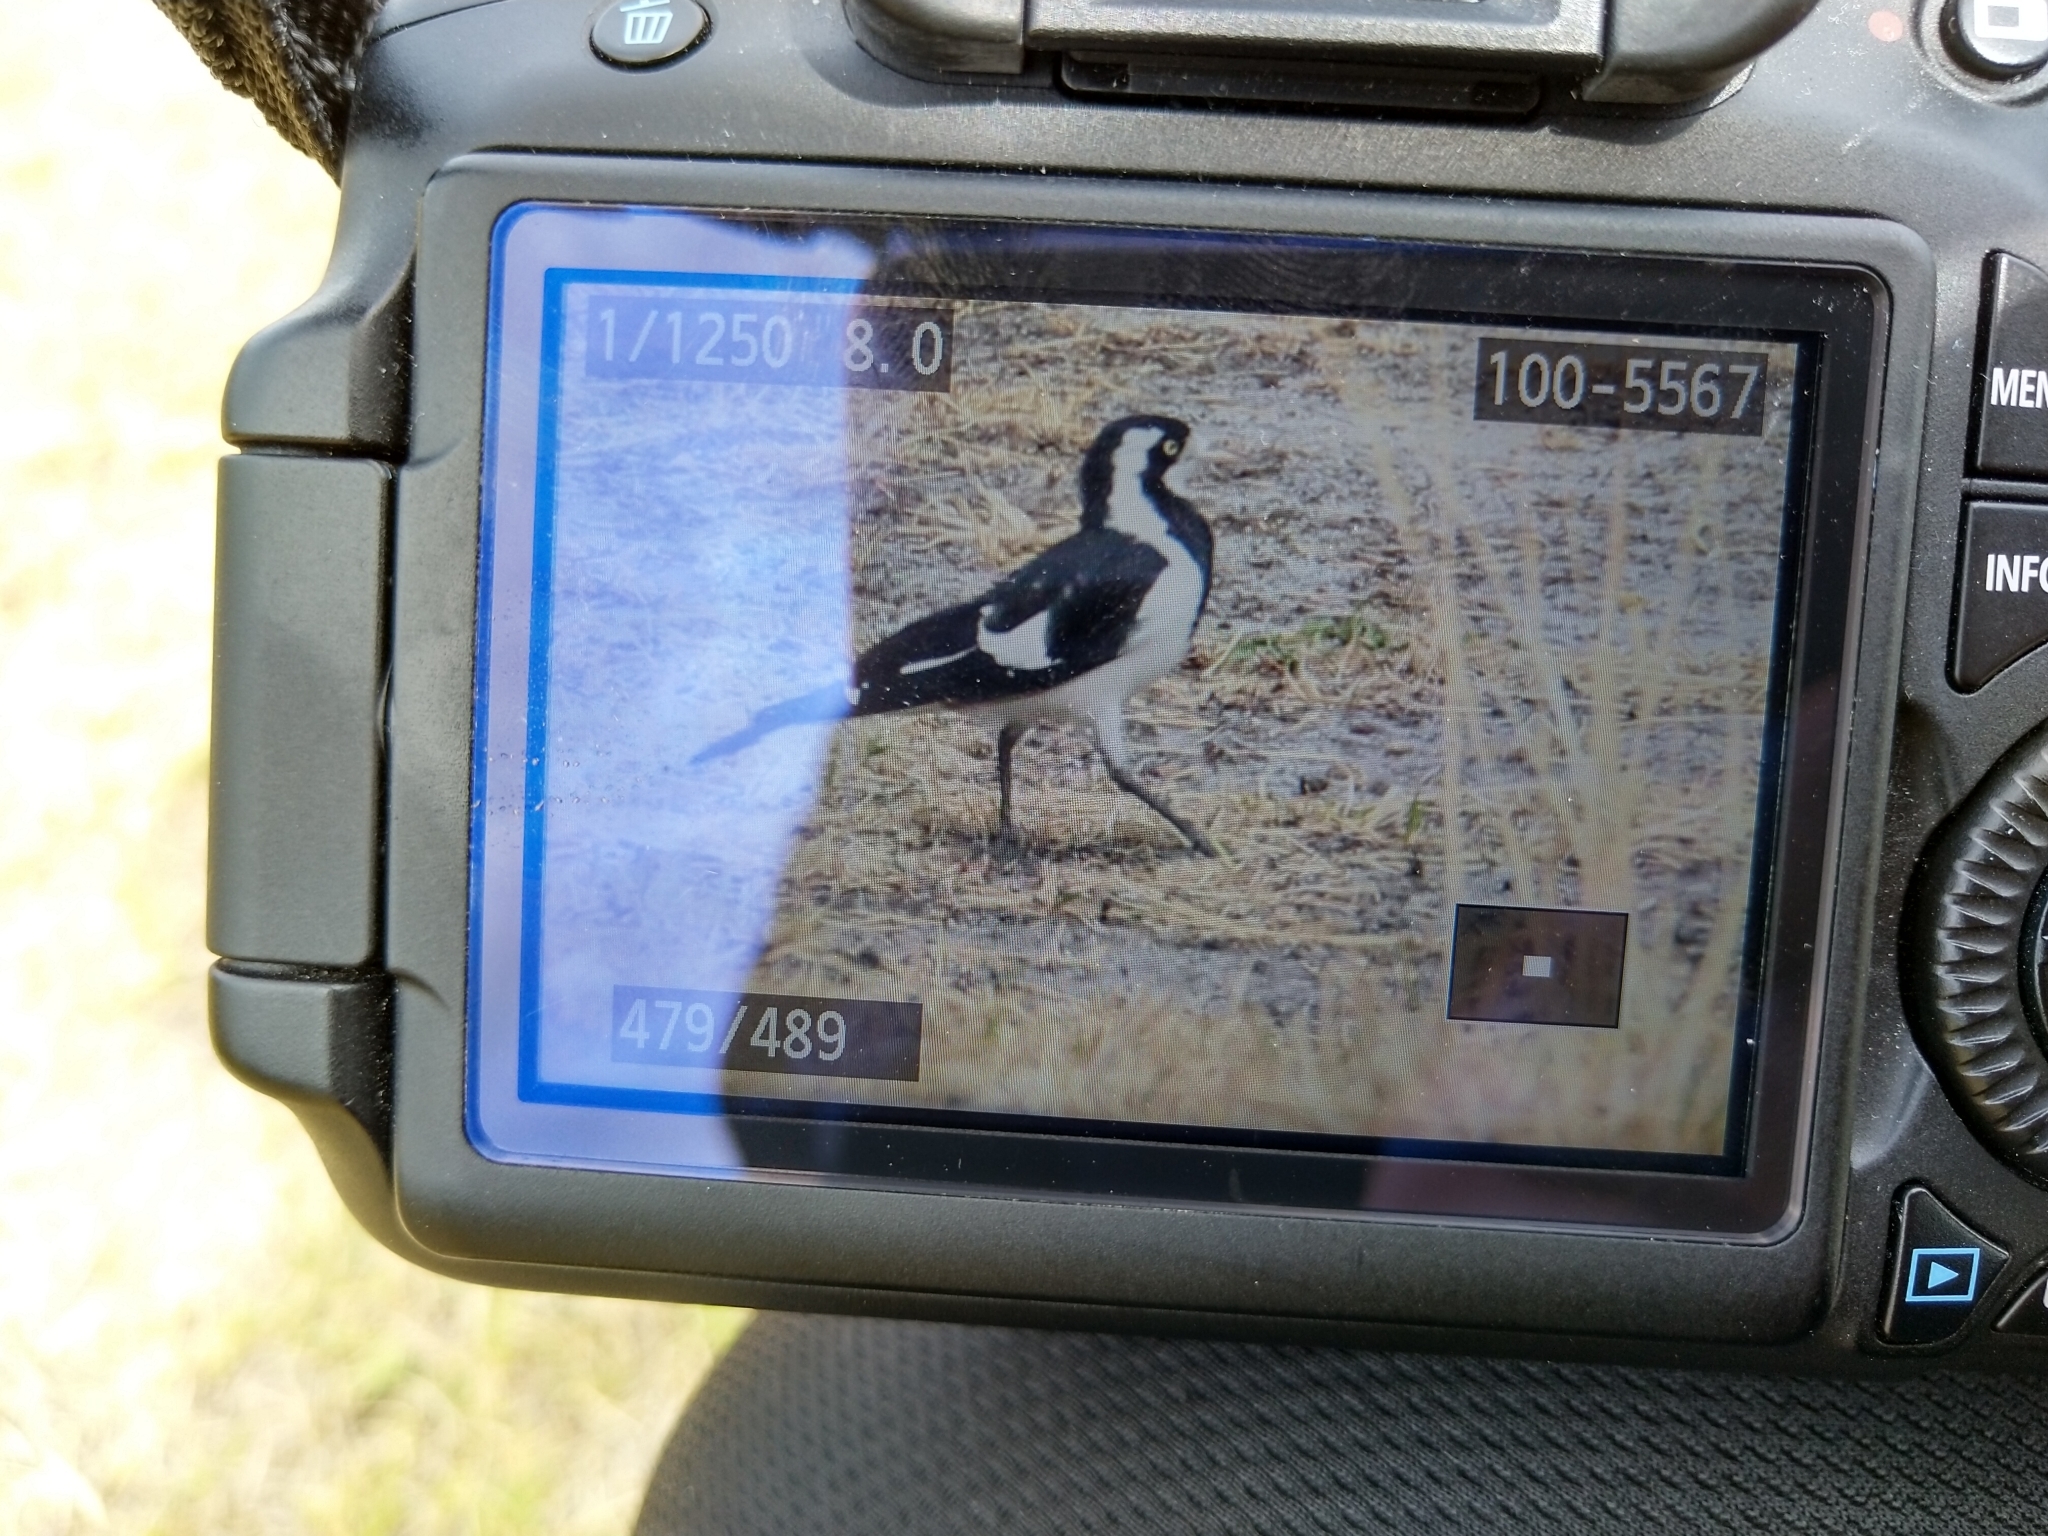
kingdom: Animalia
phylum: Chordata
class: Aves
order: Passeriformes
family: Monarchidae
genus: Grallina
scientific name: Grallina cyanoleuca
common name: Magpie-lark
